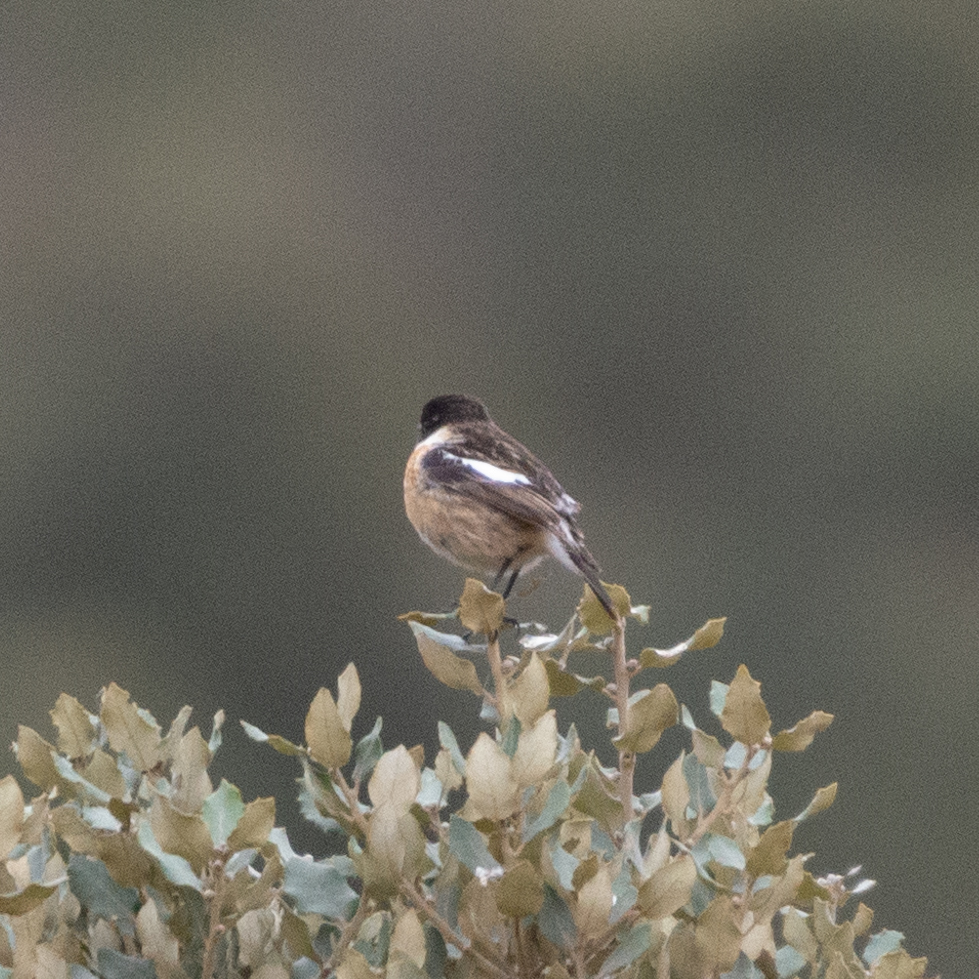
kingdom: Animalia
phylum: Chordata
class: Aves
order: Passeriformes
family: Muscicapidae
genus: Saxicola
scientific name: Saxicola rubicola
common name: European stonechat
